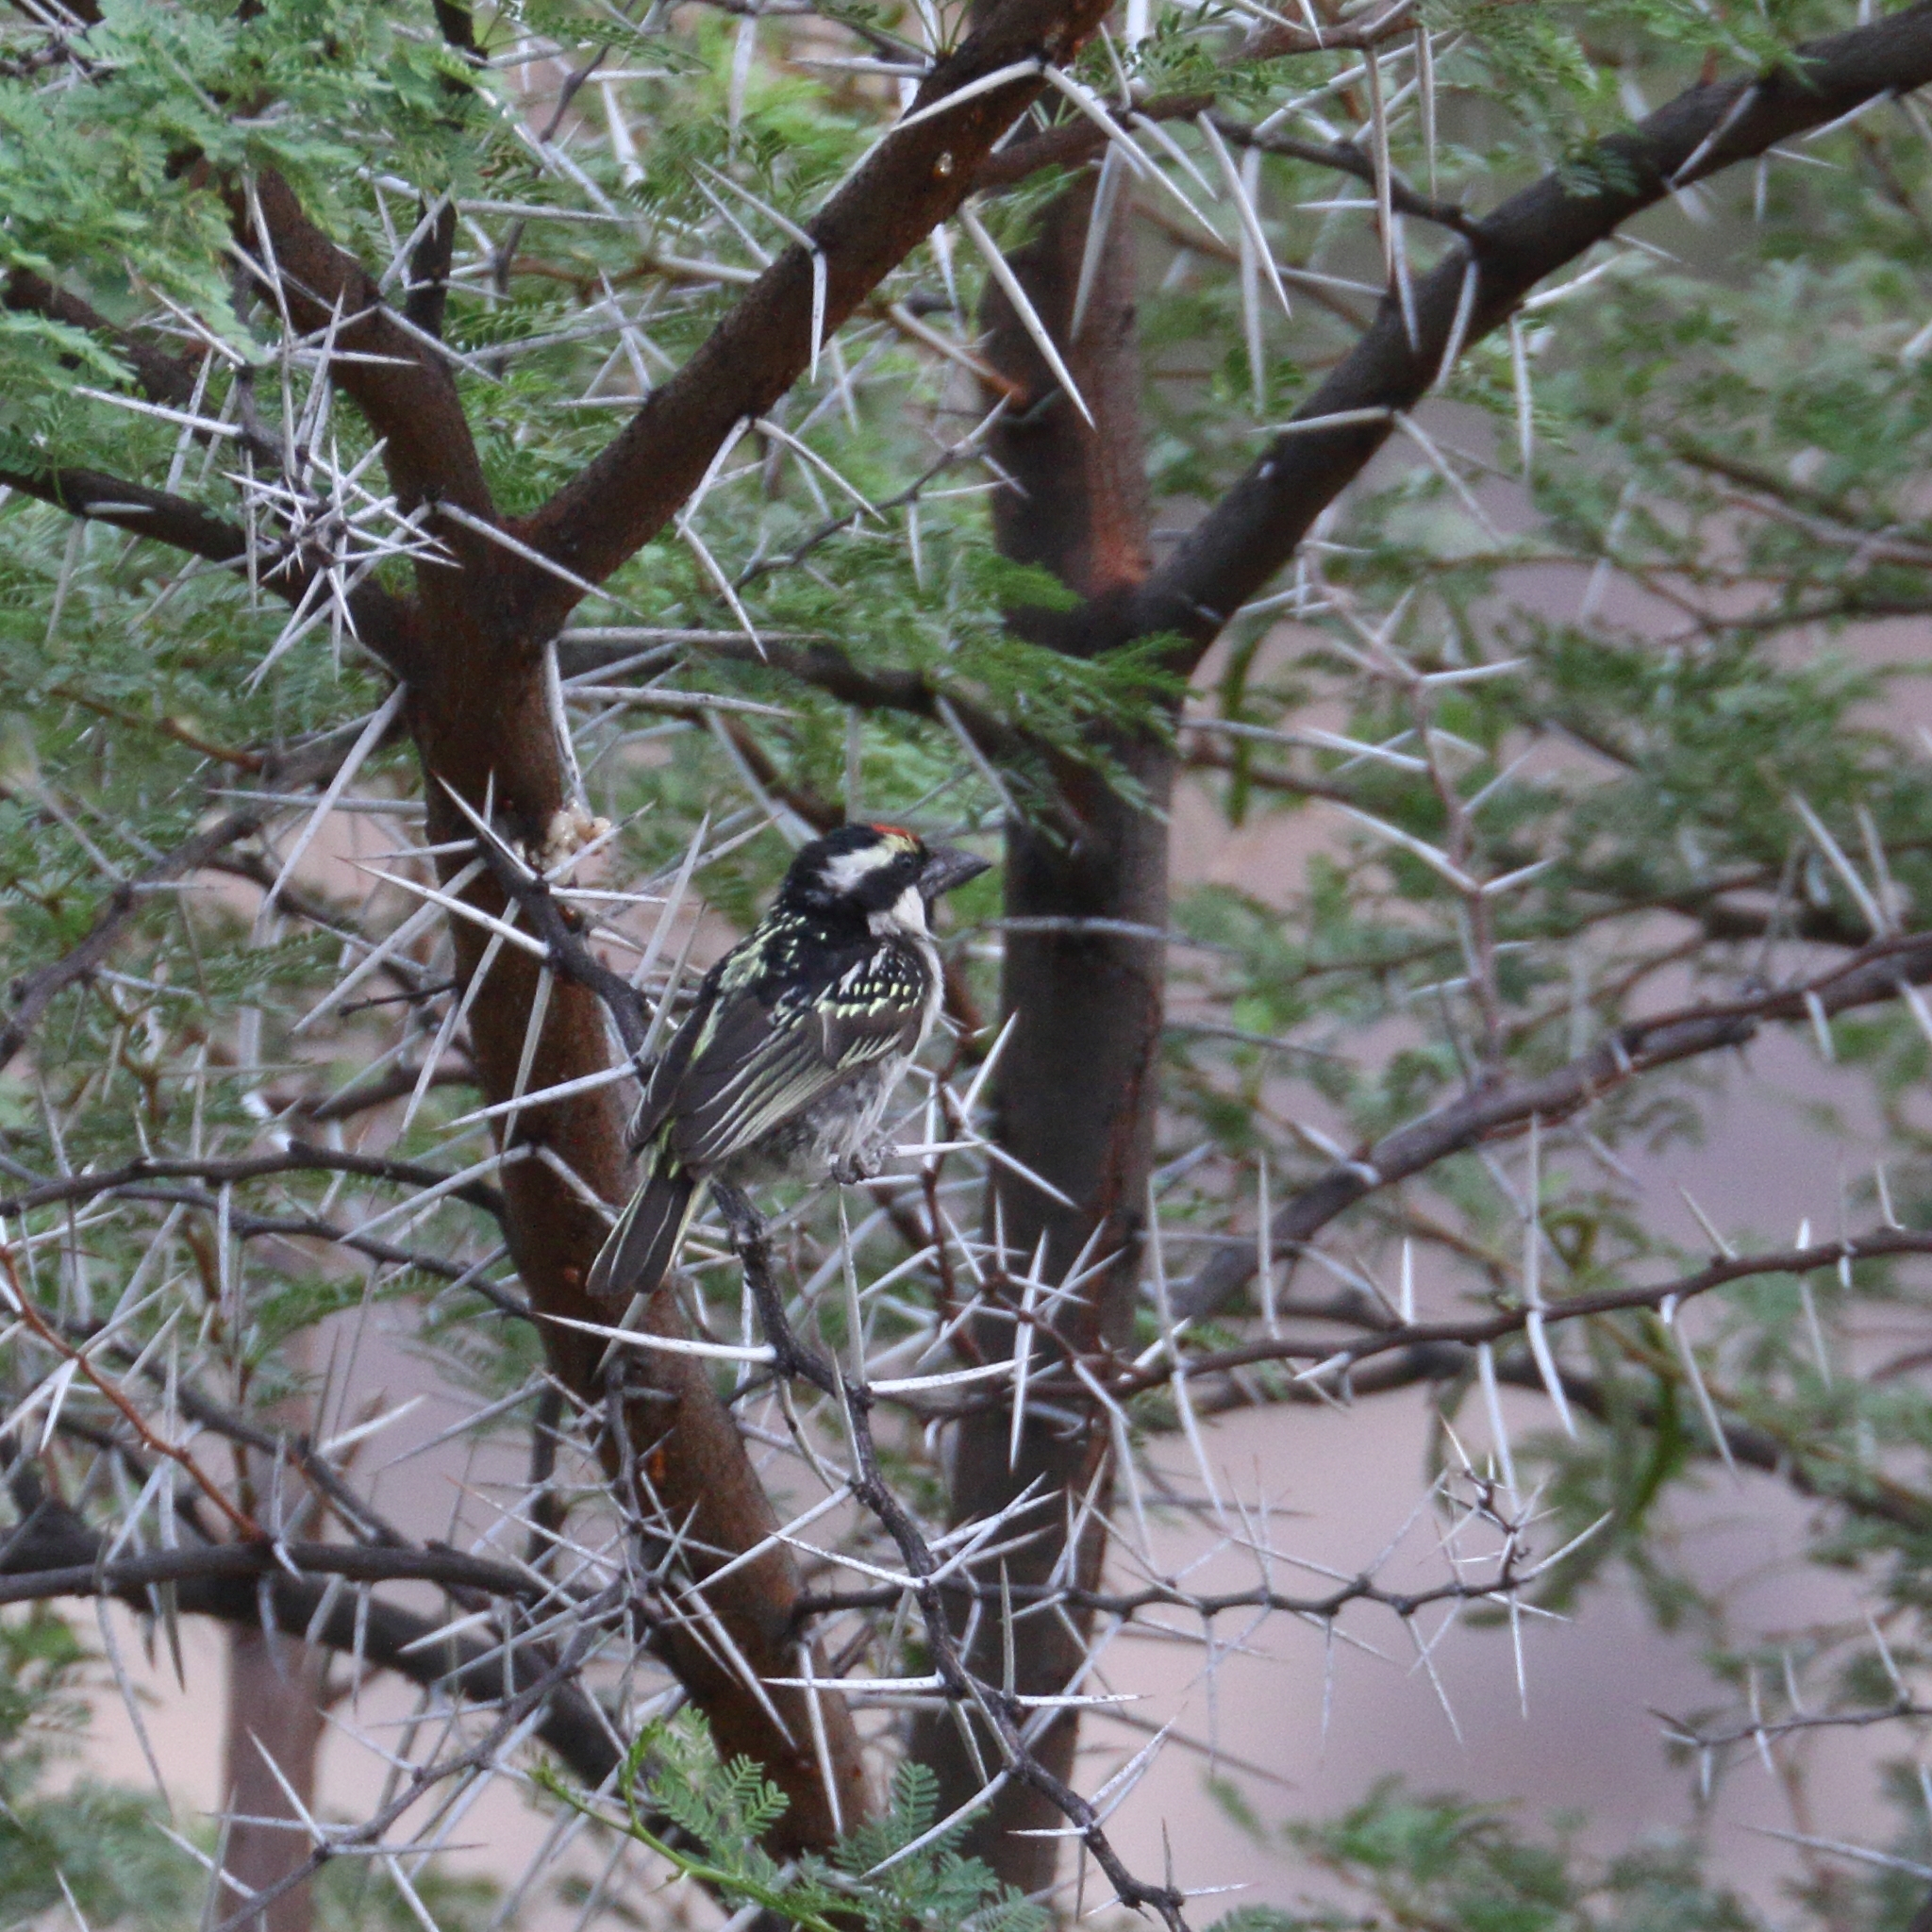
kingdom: Animalia
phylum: Chordata
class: Aves
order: Piciformes
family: Lybiidae
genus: Tricholaema
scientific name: Tricholaema leucomelas
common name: Acacia pied barbet
